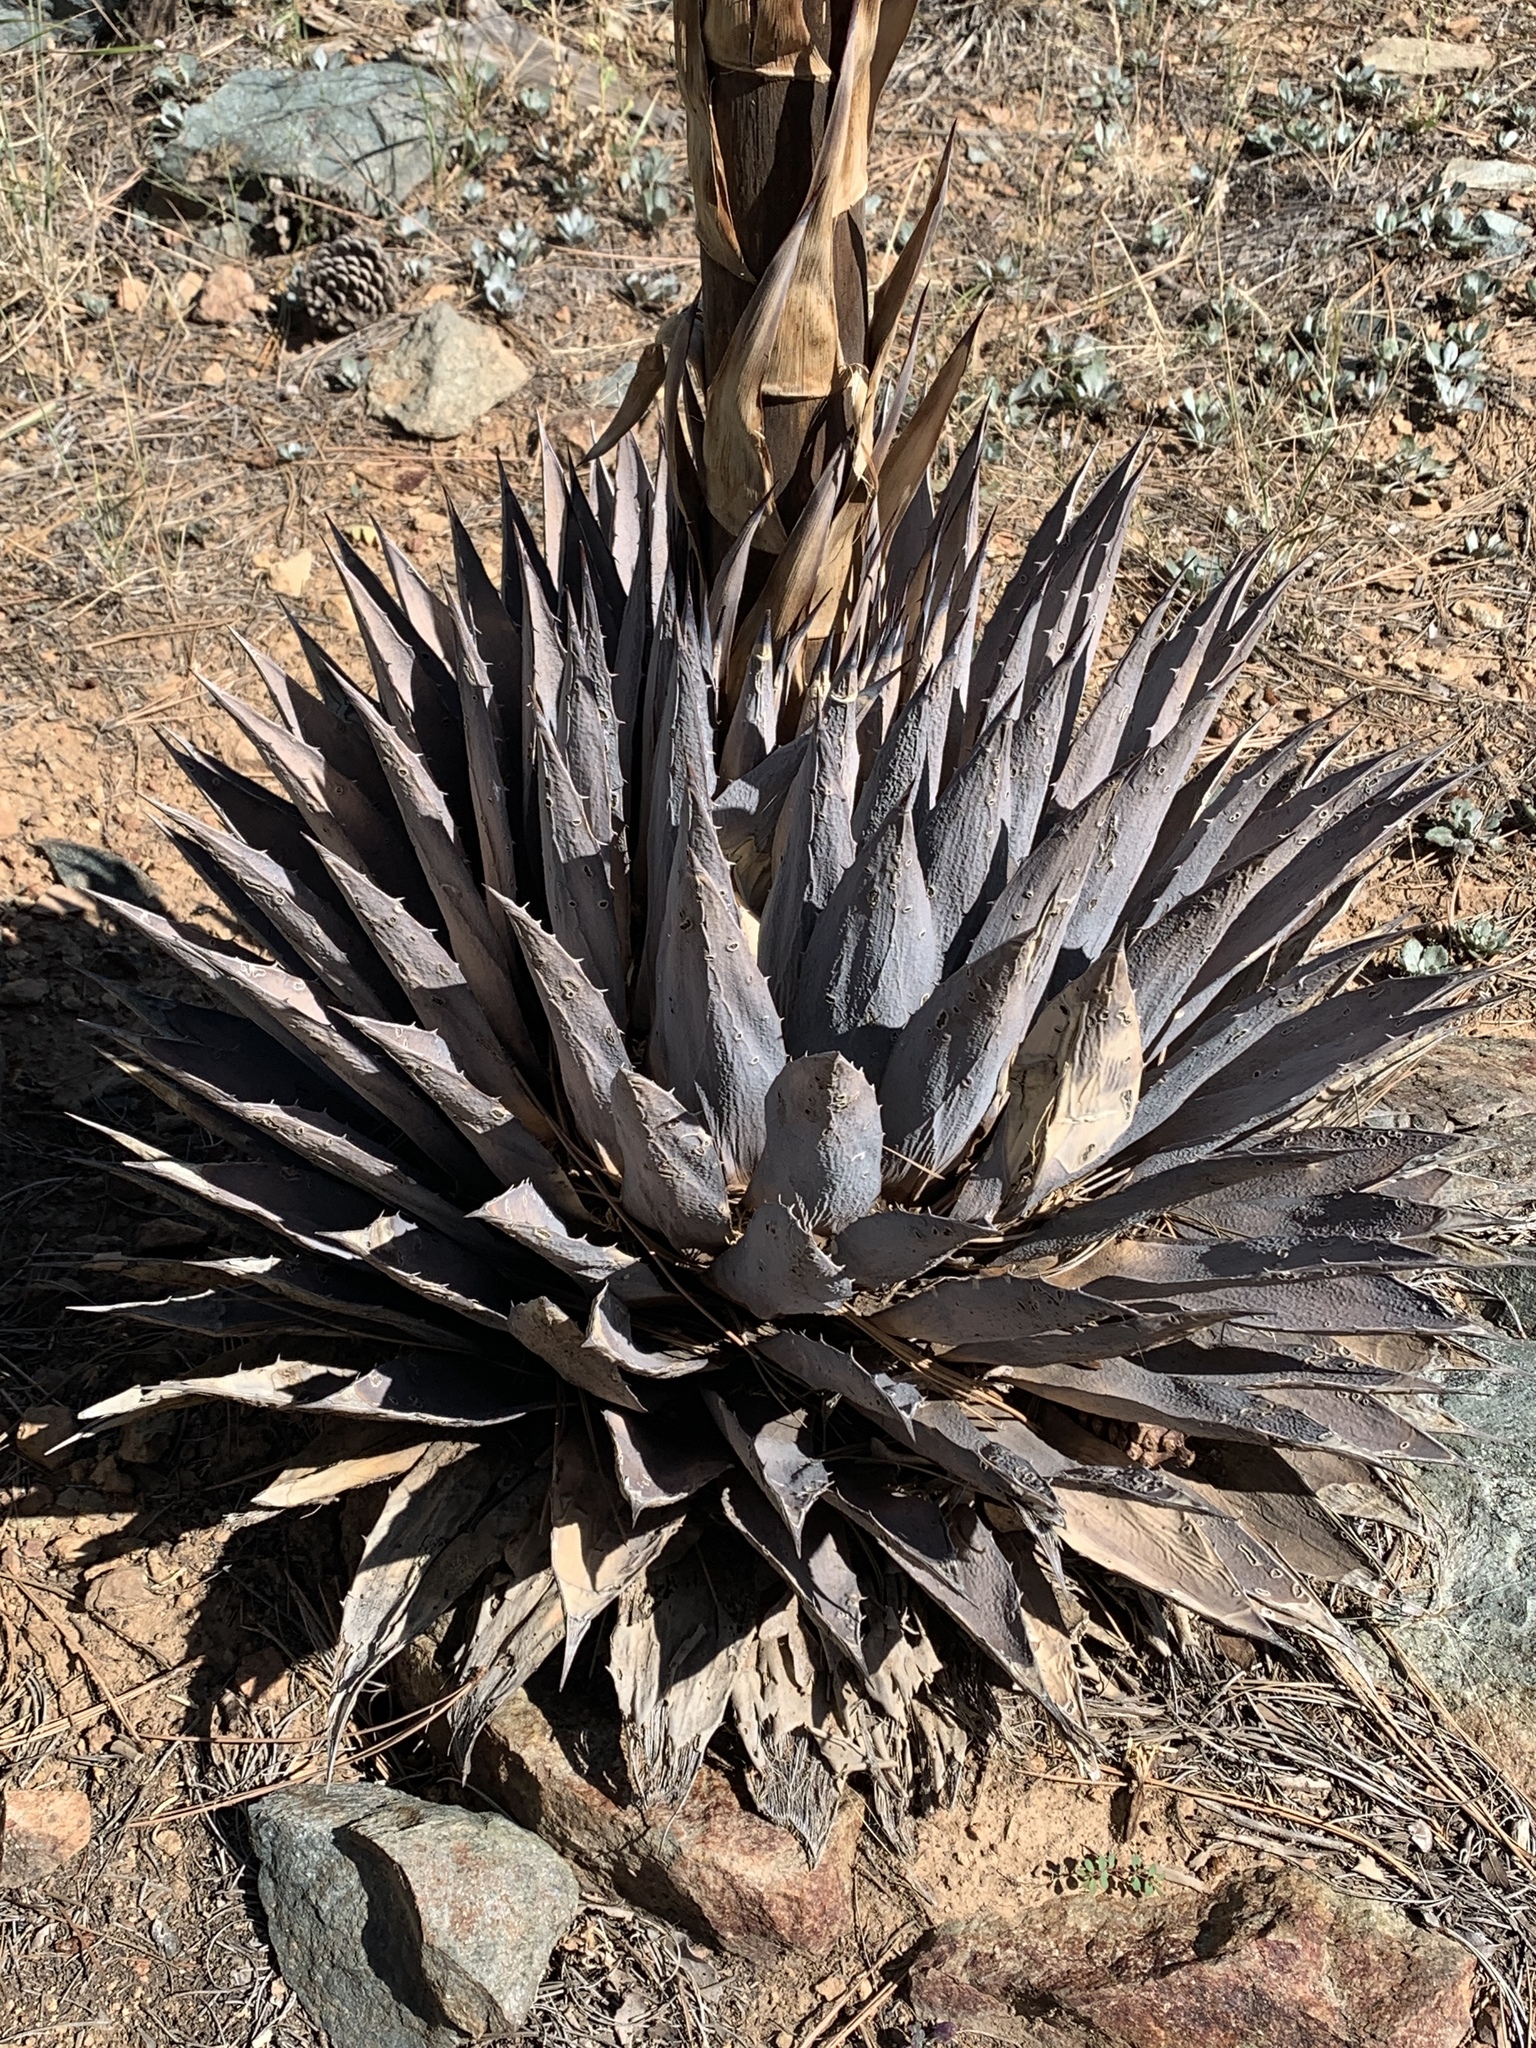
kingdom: Plantae
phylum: Tracheophyta
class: Liliopsida
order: Asparagales
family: Asparagaceae
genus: Agave
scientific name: Agave parryi
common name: Parry's agave
